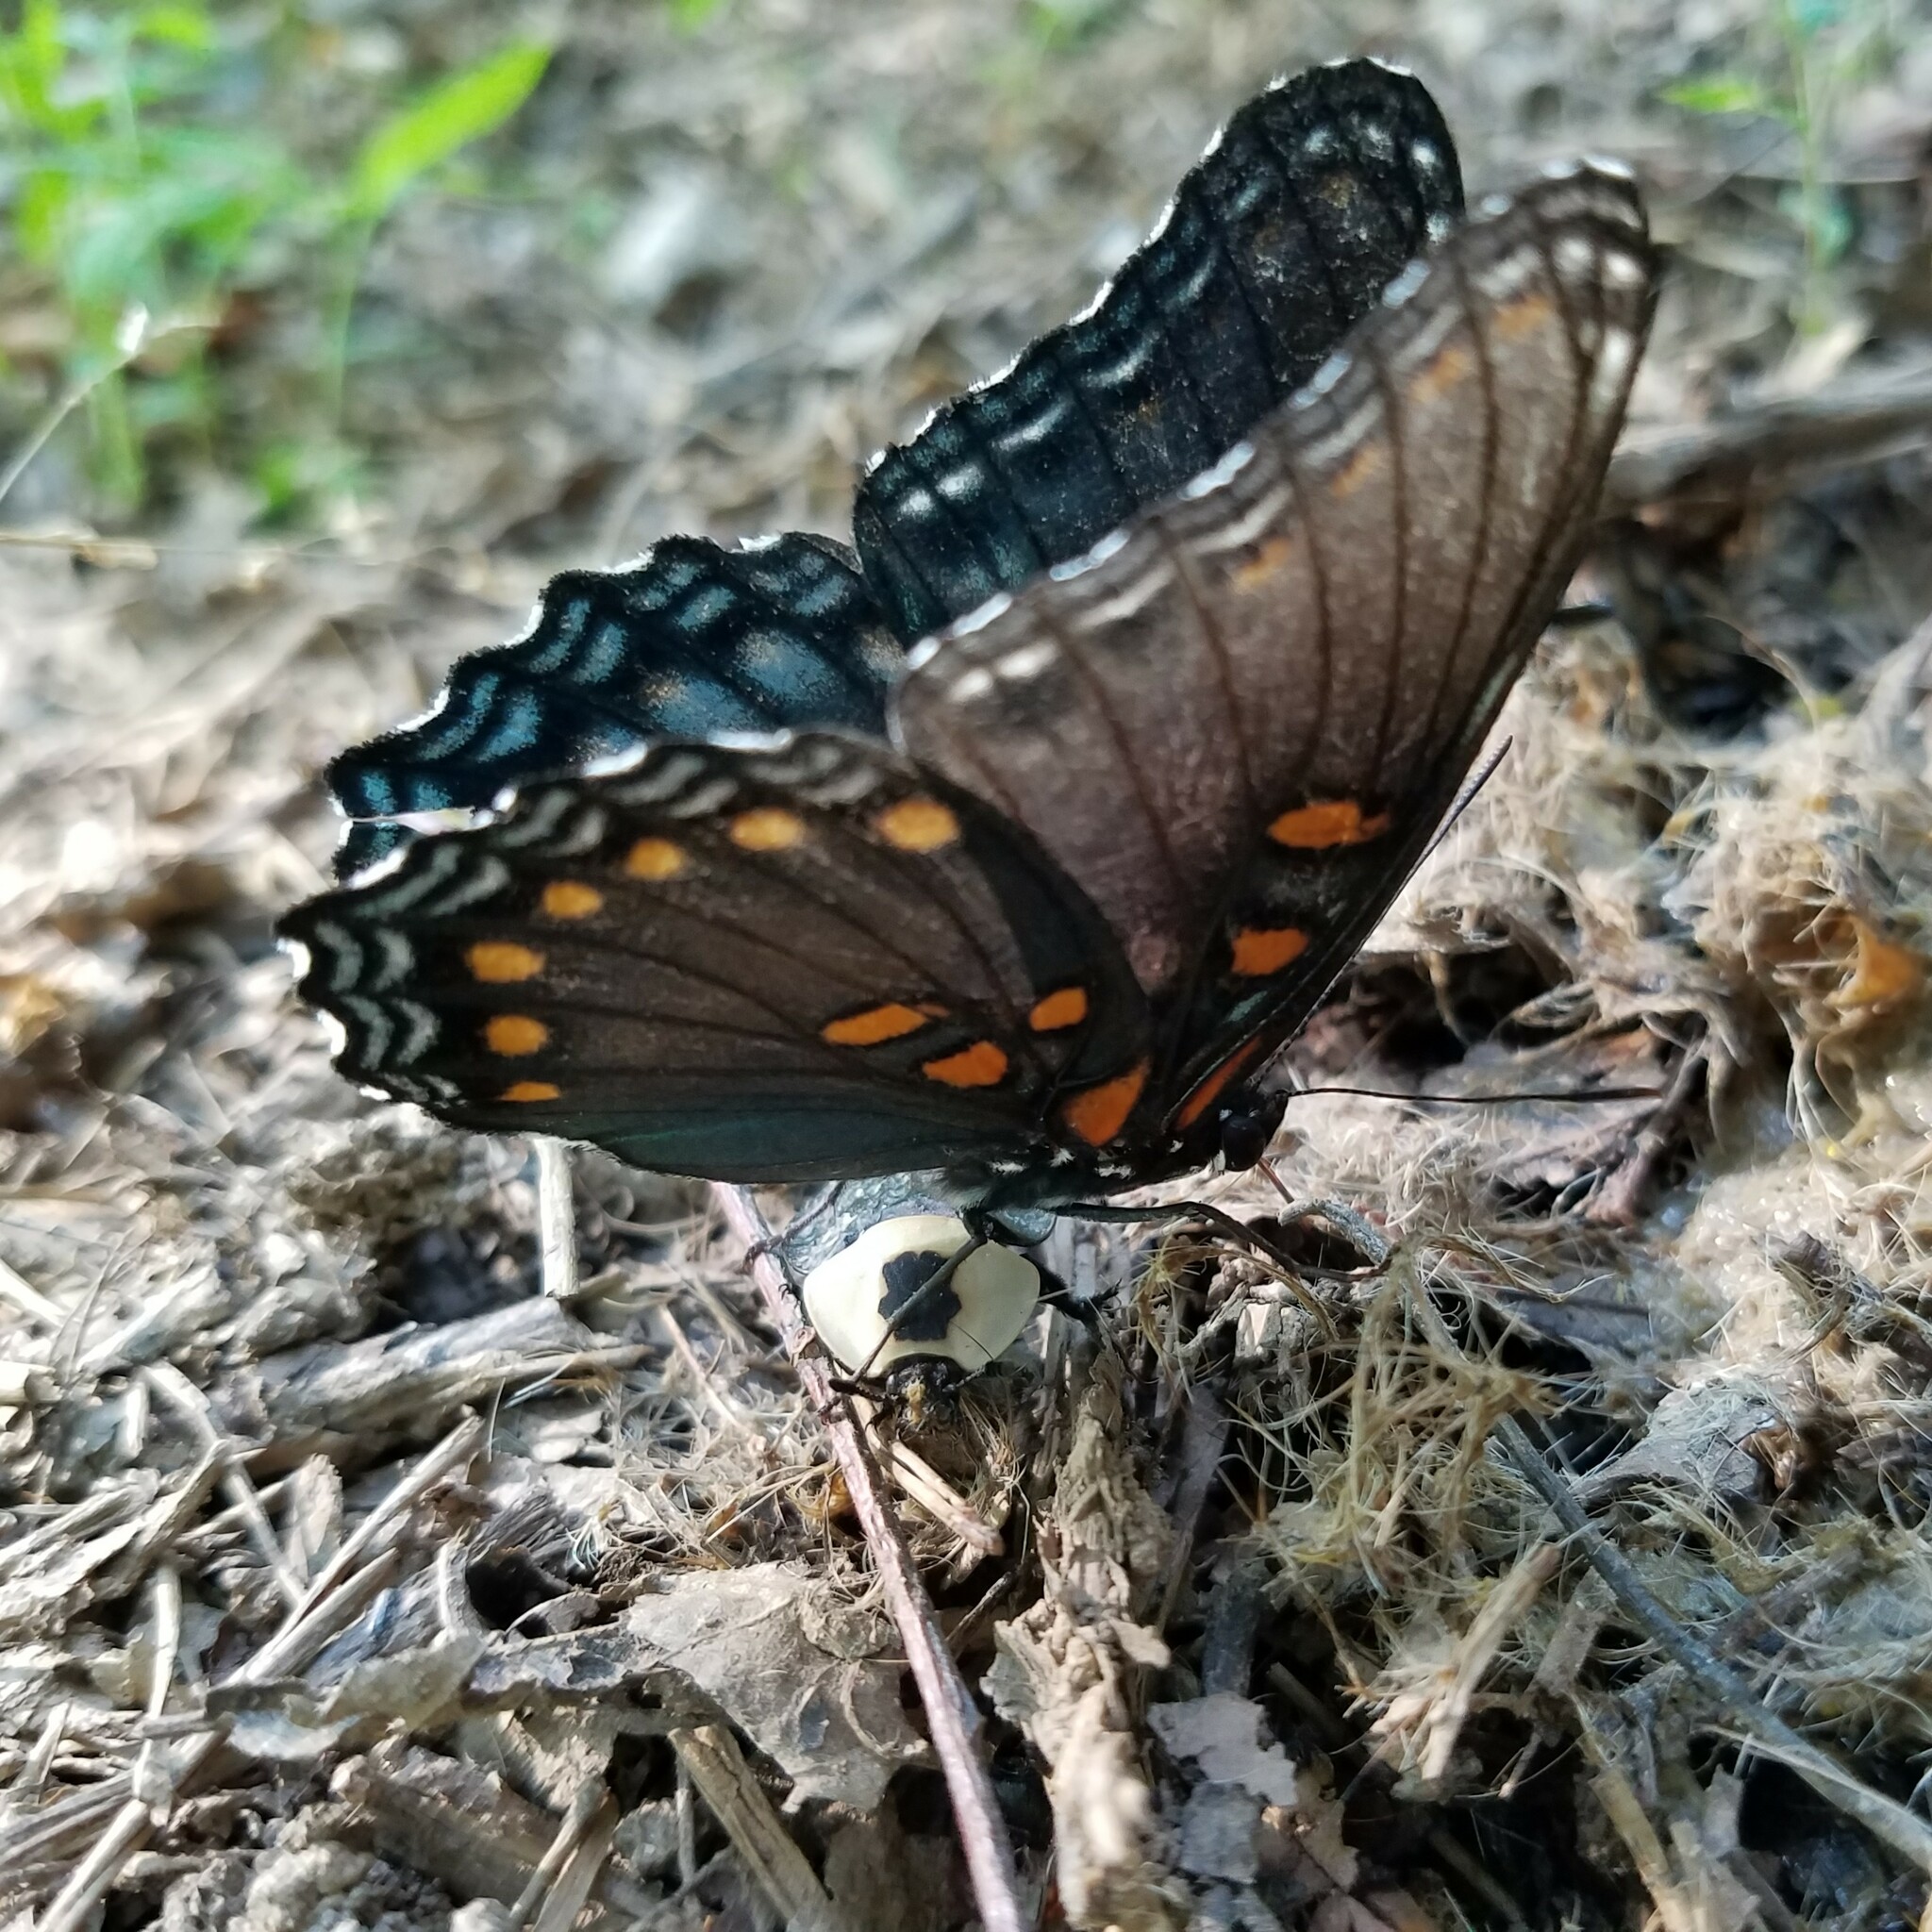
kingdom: Animalia
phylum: Arthropoda
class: Insecta
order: Lepidoptera
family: Nymphalidae
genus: Limenitis
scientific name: Limenitis arthemis
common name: Red-spotted admiral
